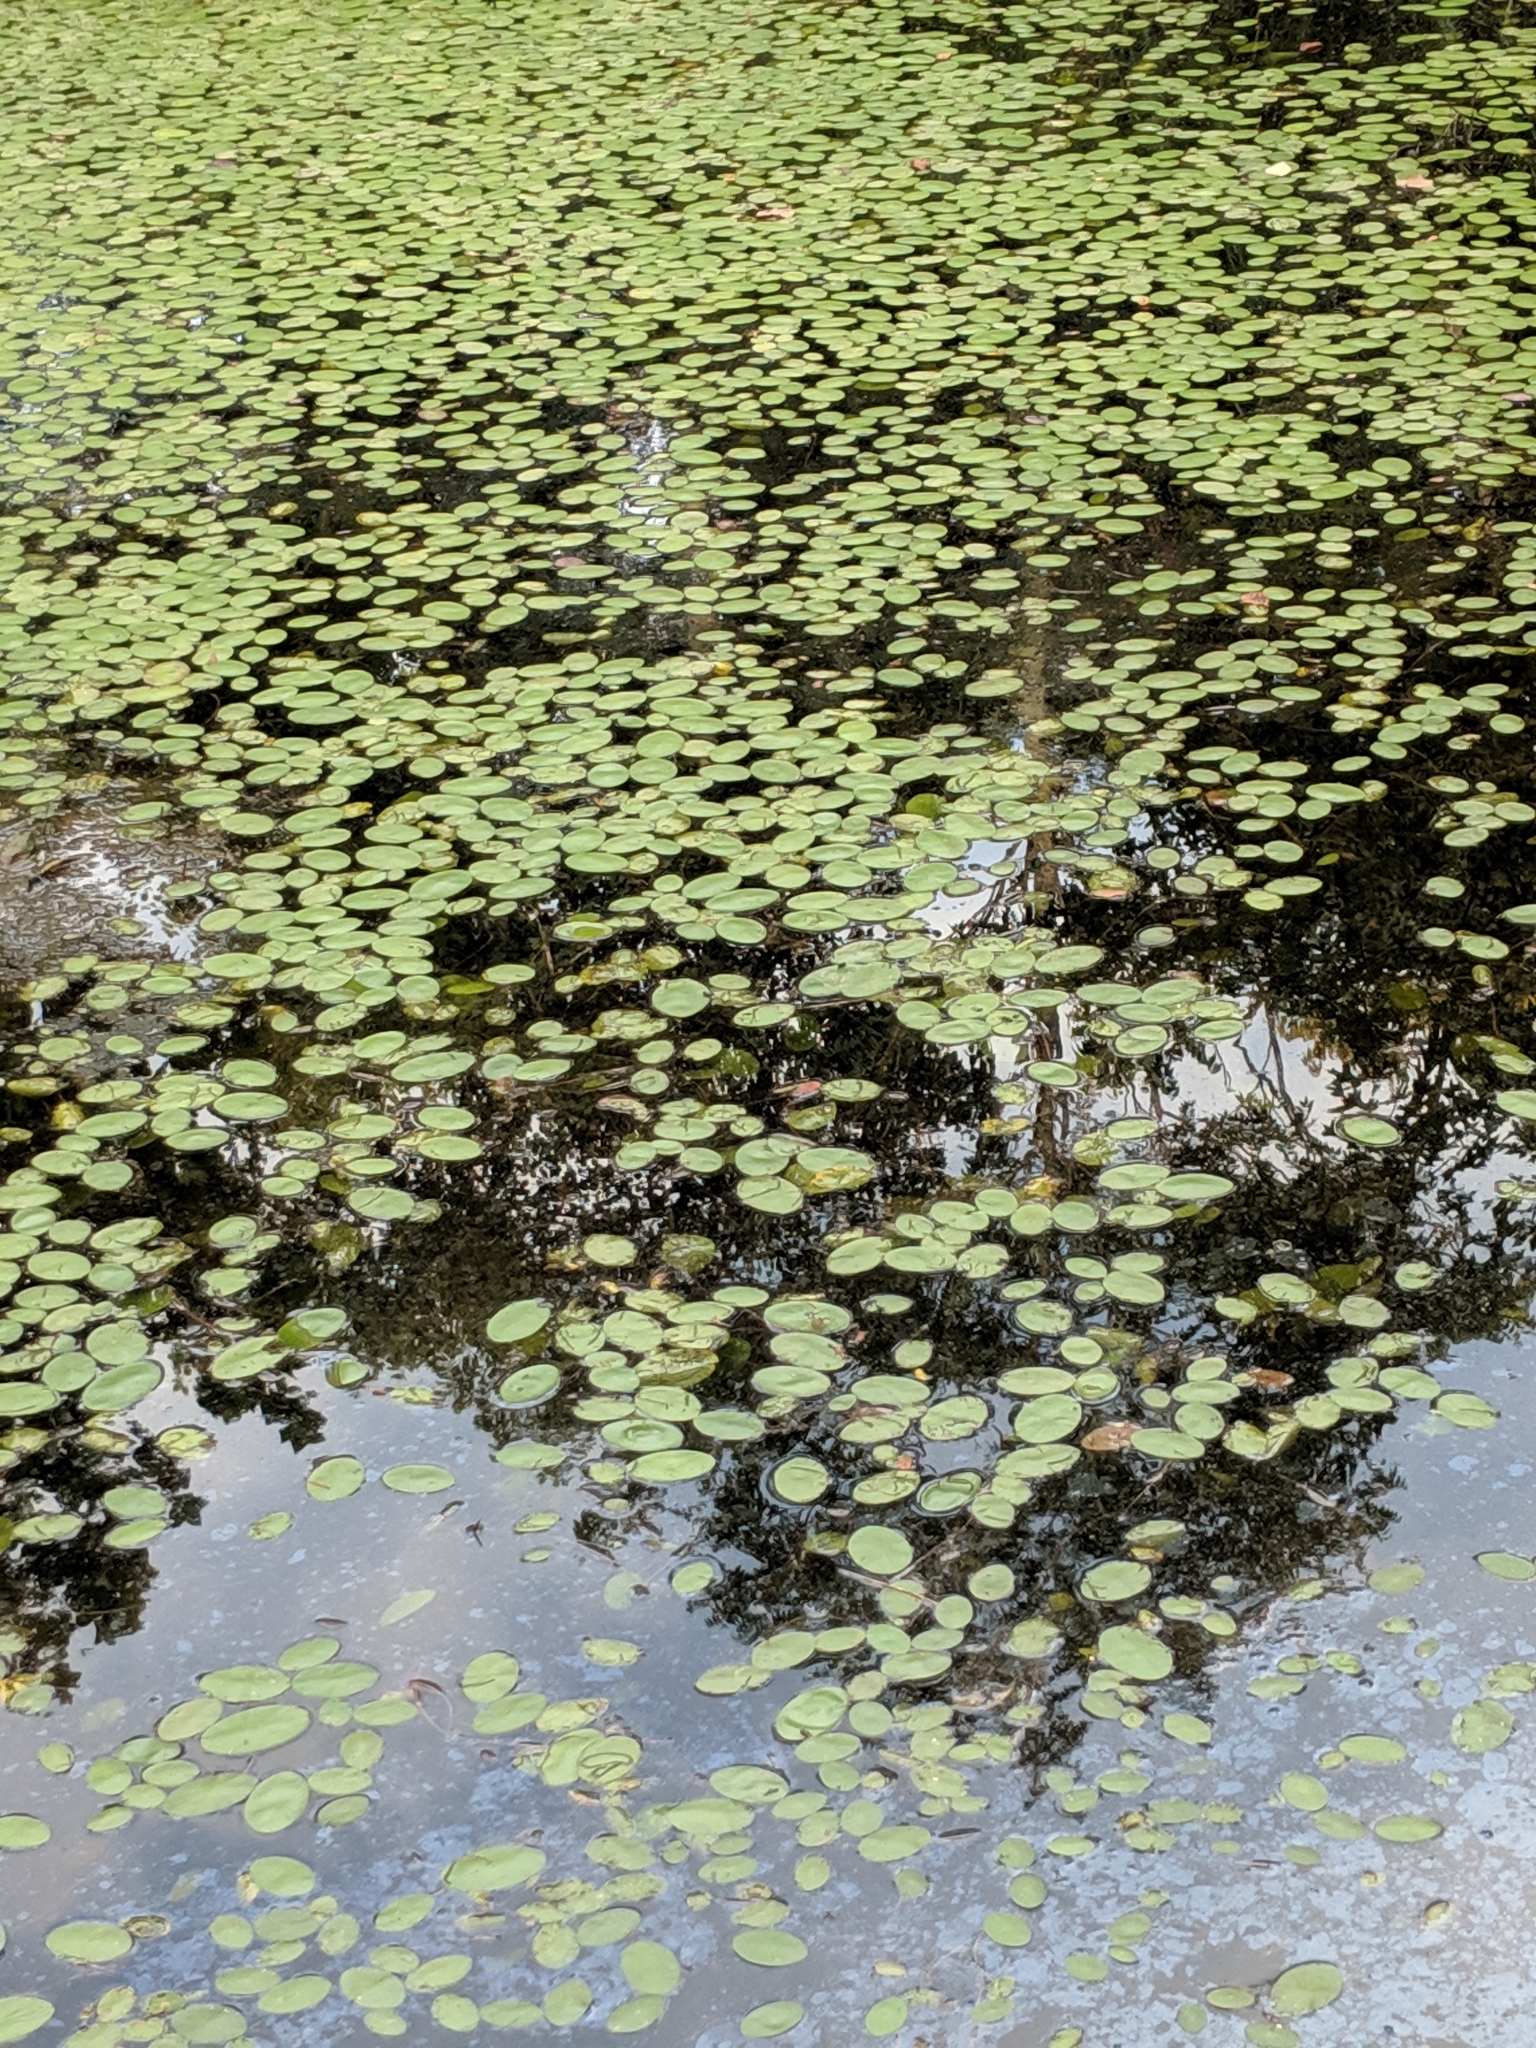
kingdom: Plantae
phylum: Tracheophyta
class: Magnoliopsida
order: Nymphaeales
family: Cabombaceae
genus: Brasenia
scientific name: Brasenia schreberi
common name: Water-shield
